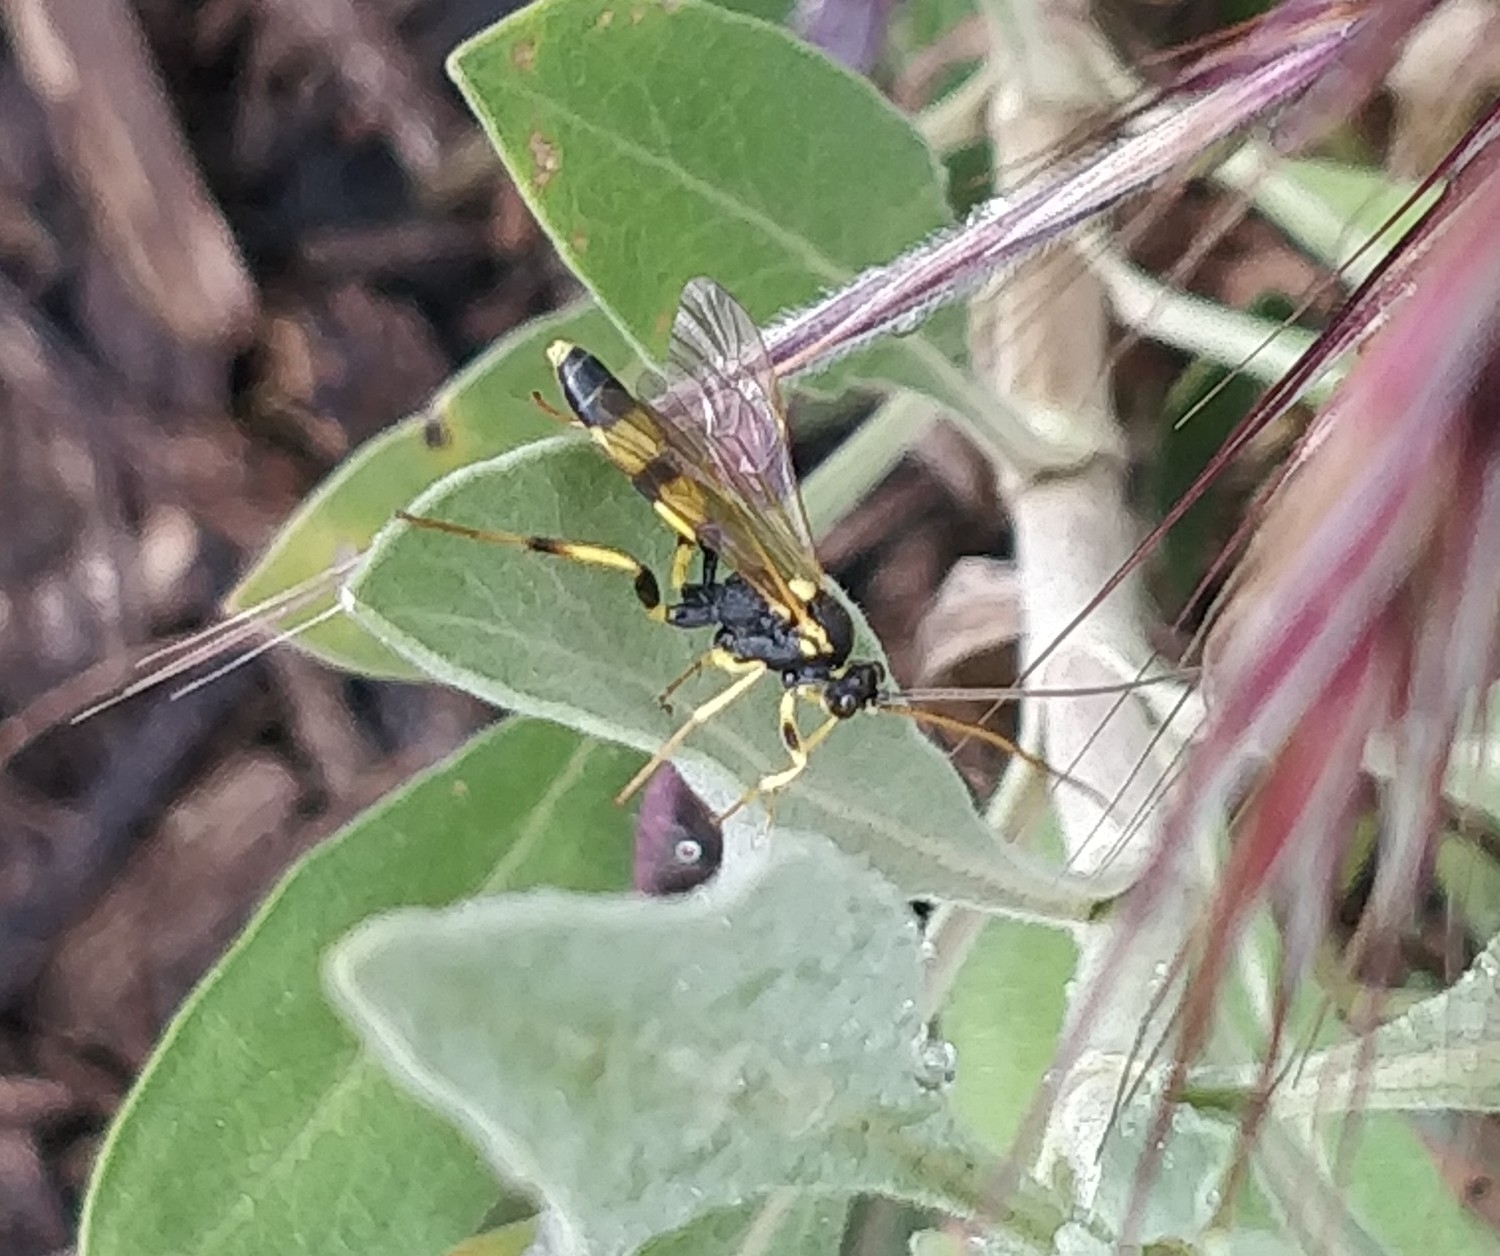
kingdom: Animalia
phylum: Arthropoda
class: Insecta
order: Hymenoptera
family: Ichneumonidae
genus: Amblyteles
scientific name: Amblyteles armatorius
